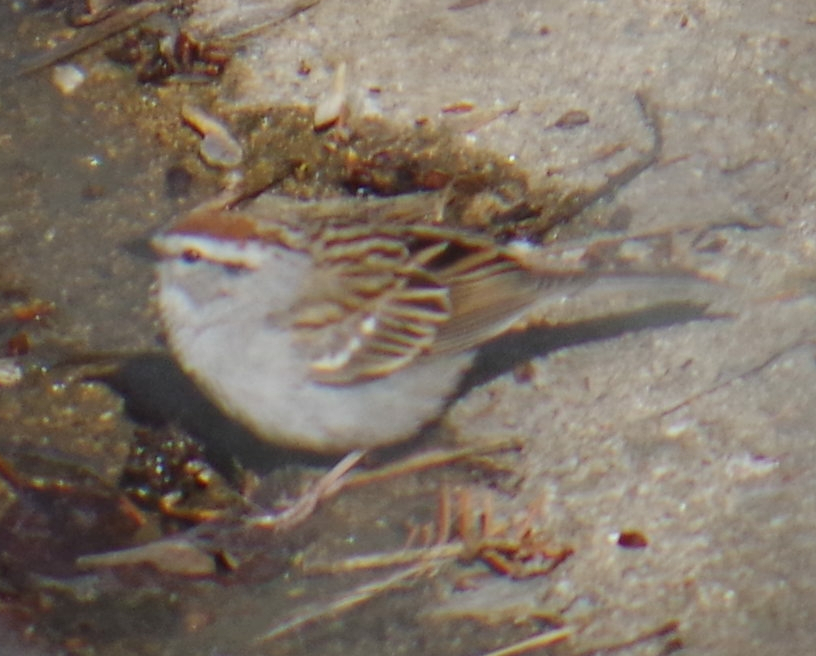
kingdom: Animalia
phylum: Chordata
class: Aves
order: Passeriformes
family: Passerellidae
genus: Spizella
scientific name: Spizella passerina
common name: Chipping sparrow
